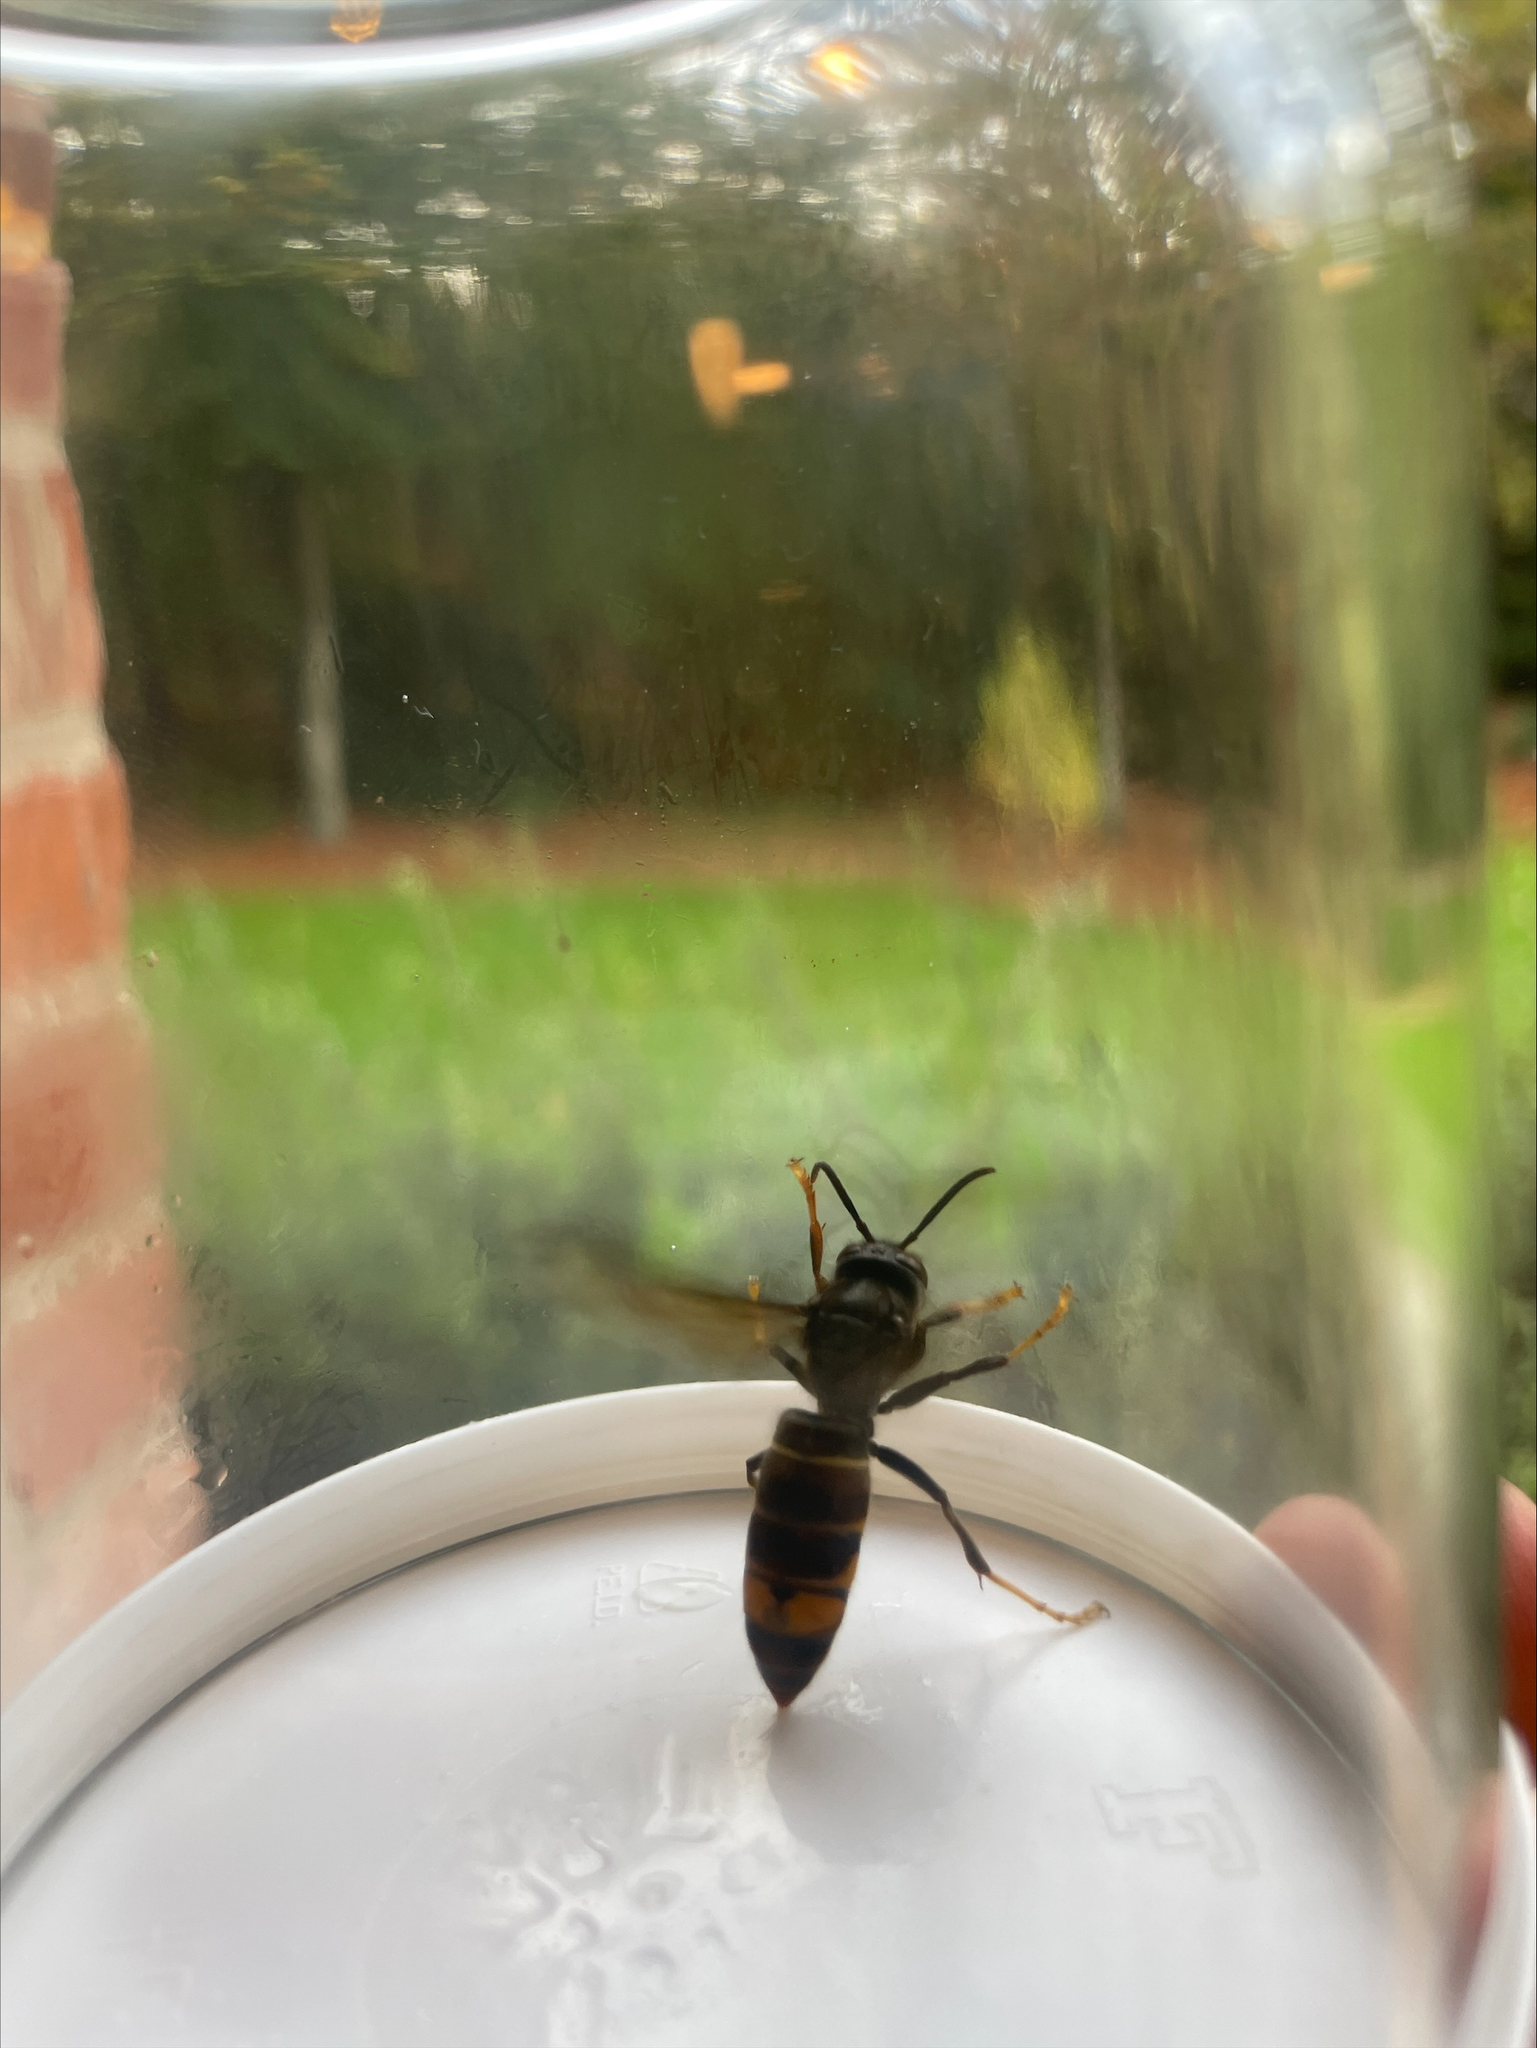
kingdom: Animalia
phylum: Arthropoda
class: Insecta
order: Hymenoptera
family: Vespidae
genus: Vespa
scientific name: Vespa velutina
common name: Asian hornet
